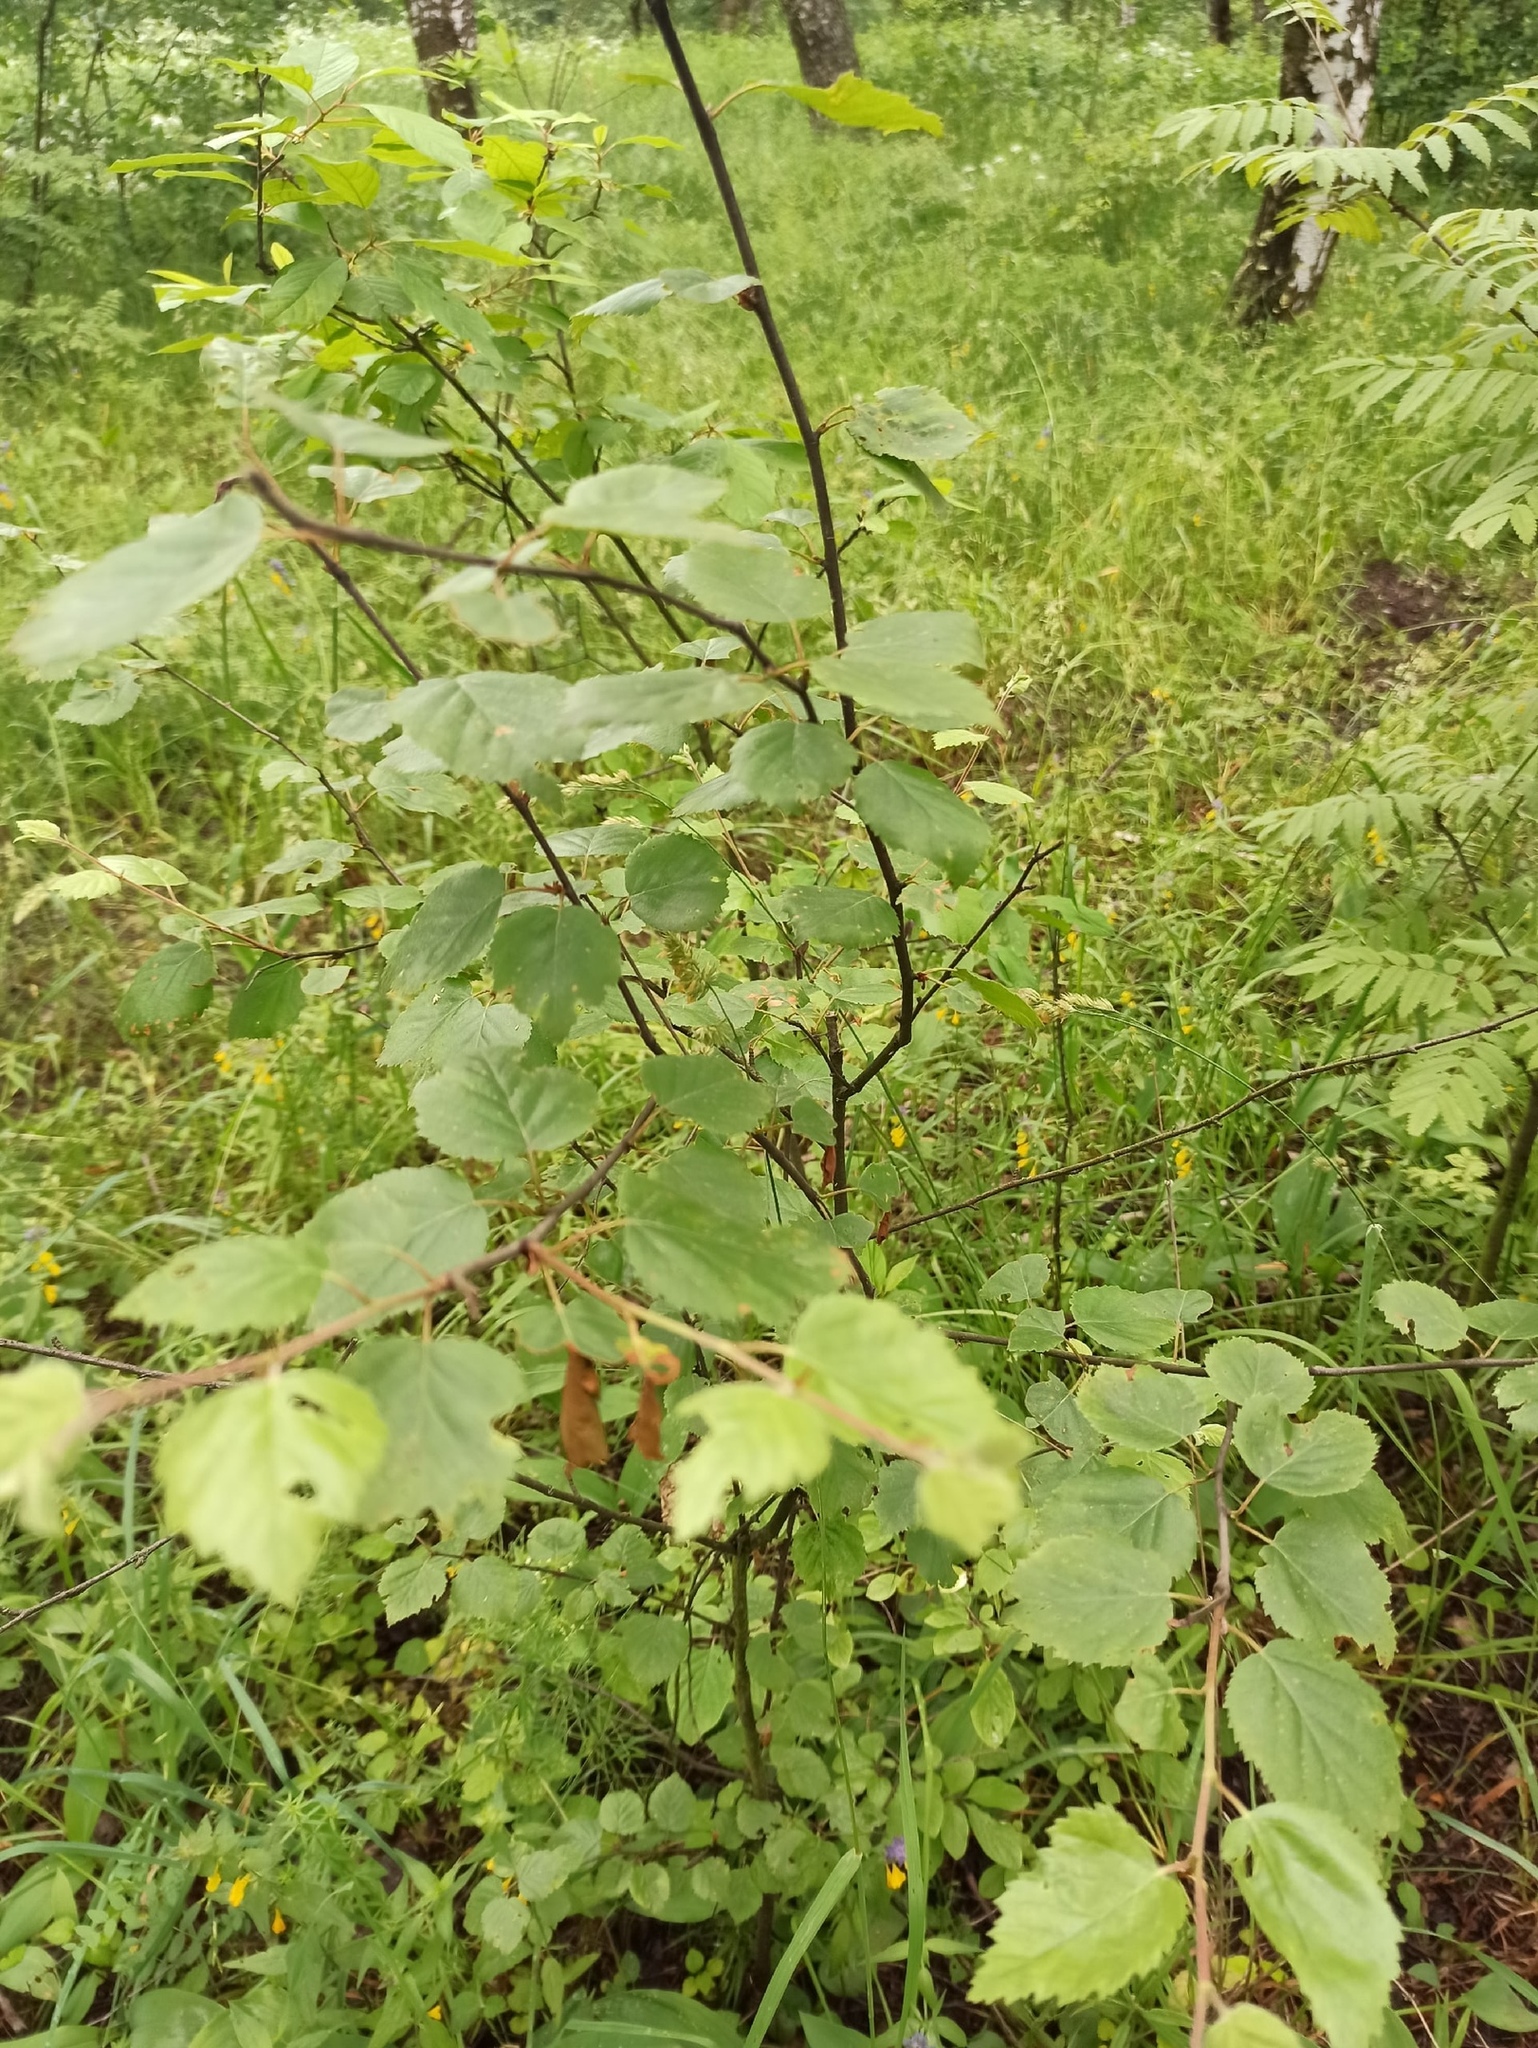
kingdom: Plantae
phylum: Tracheophyta
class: Magnoliopsida
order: Fagales
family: Betulaceae
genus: Betula
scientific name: Betula pubescens
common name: Downy birch
